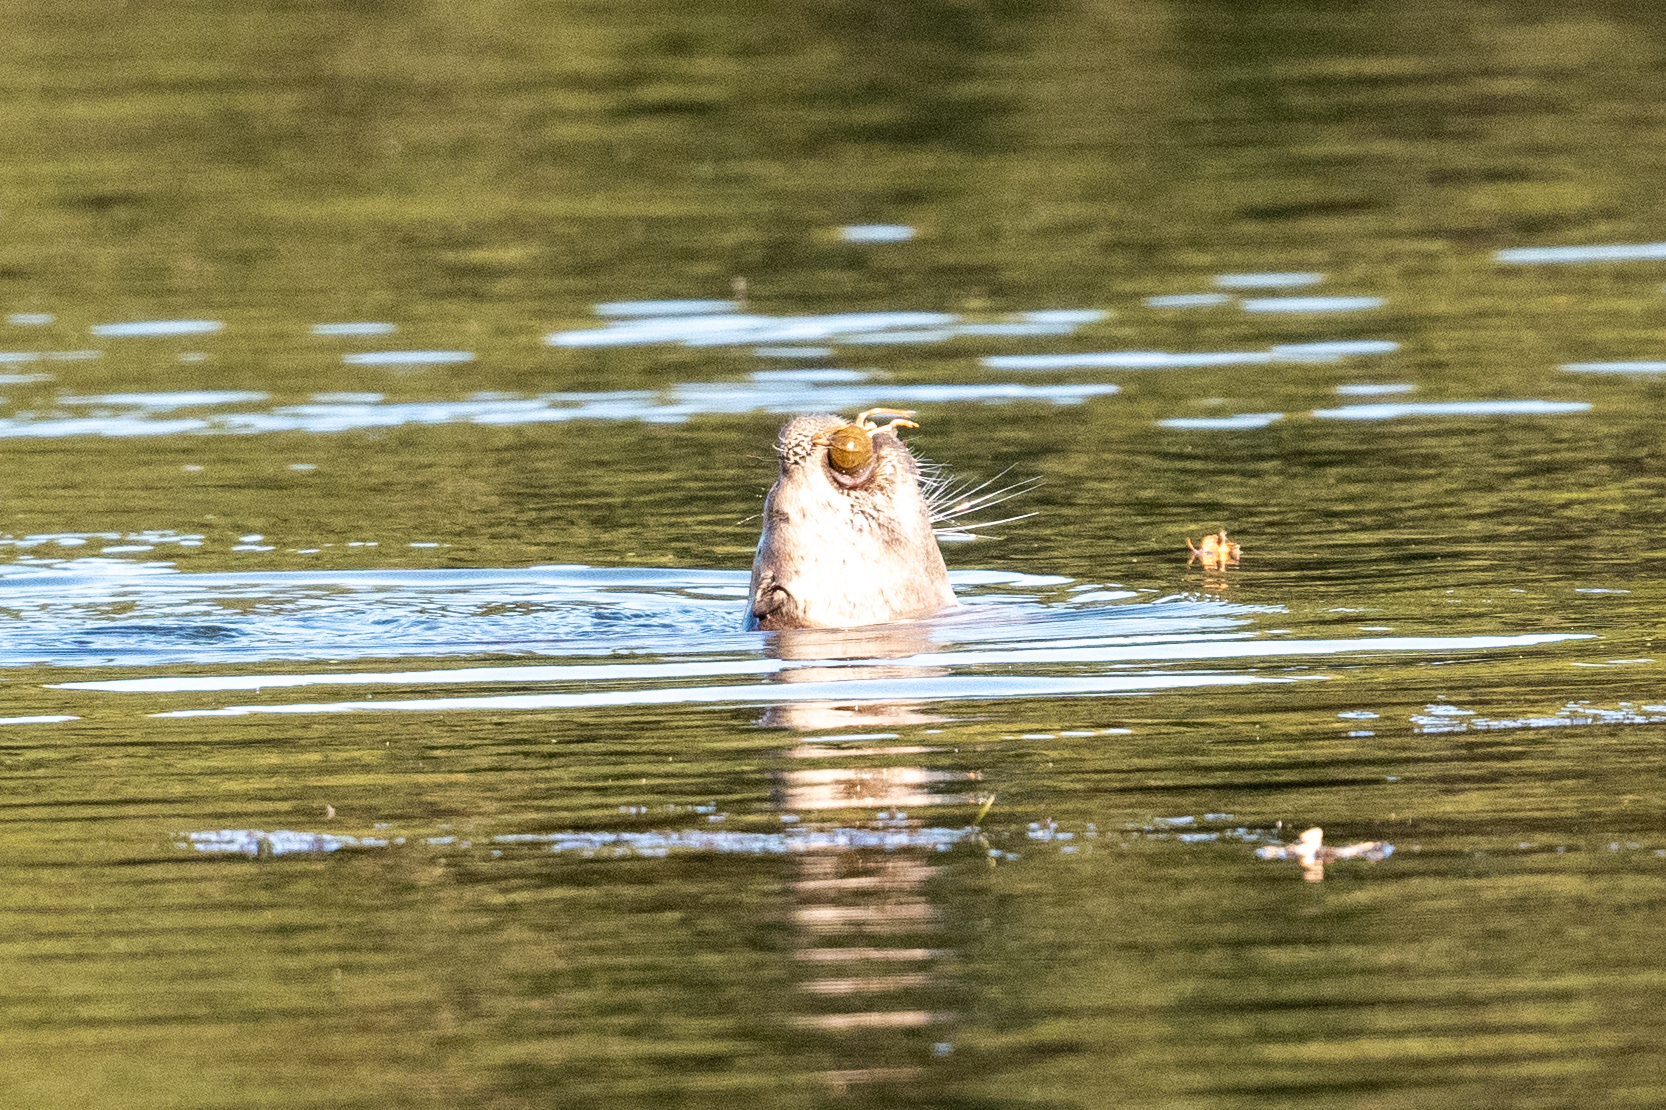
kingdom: Animalia
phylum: Chordata
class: Mammalia
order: Carnivora
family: Mustelidae
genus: Lontra
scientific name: Lontra canadensis
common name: North american river otter
